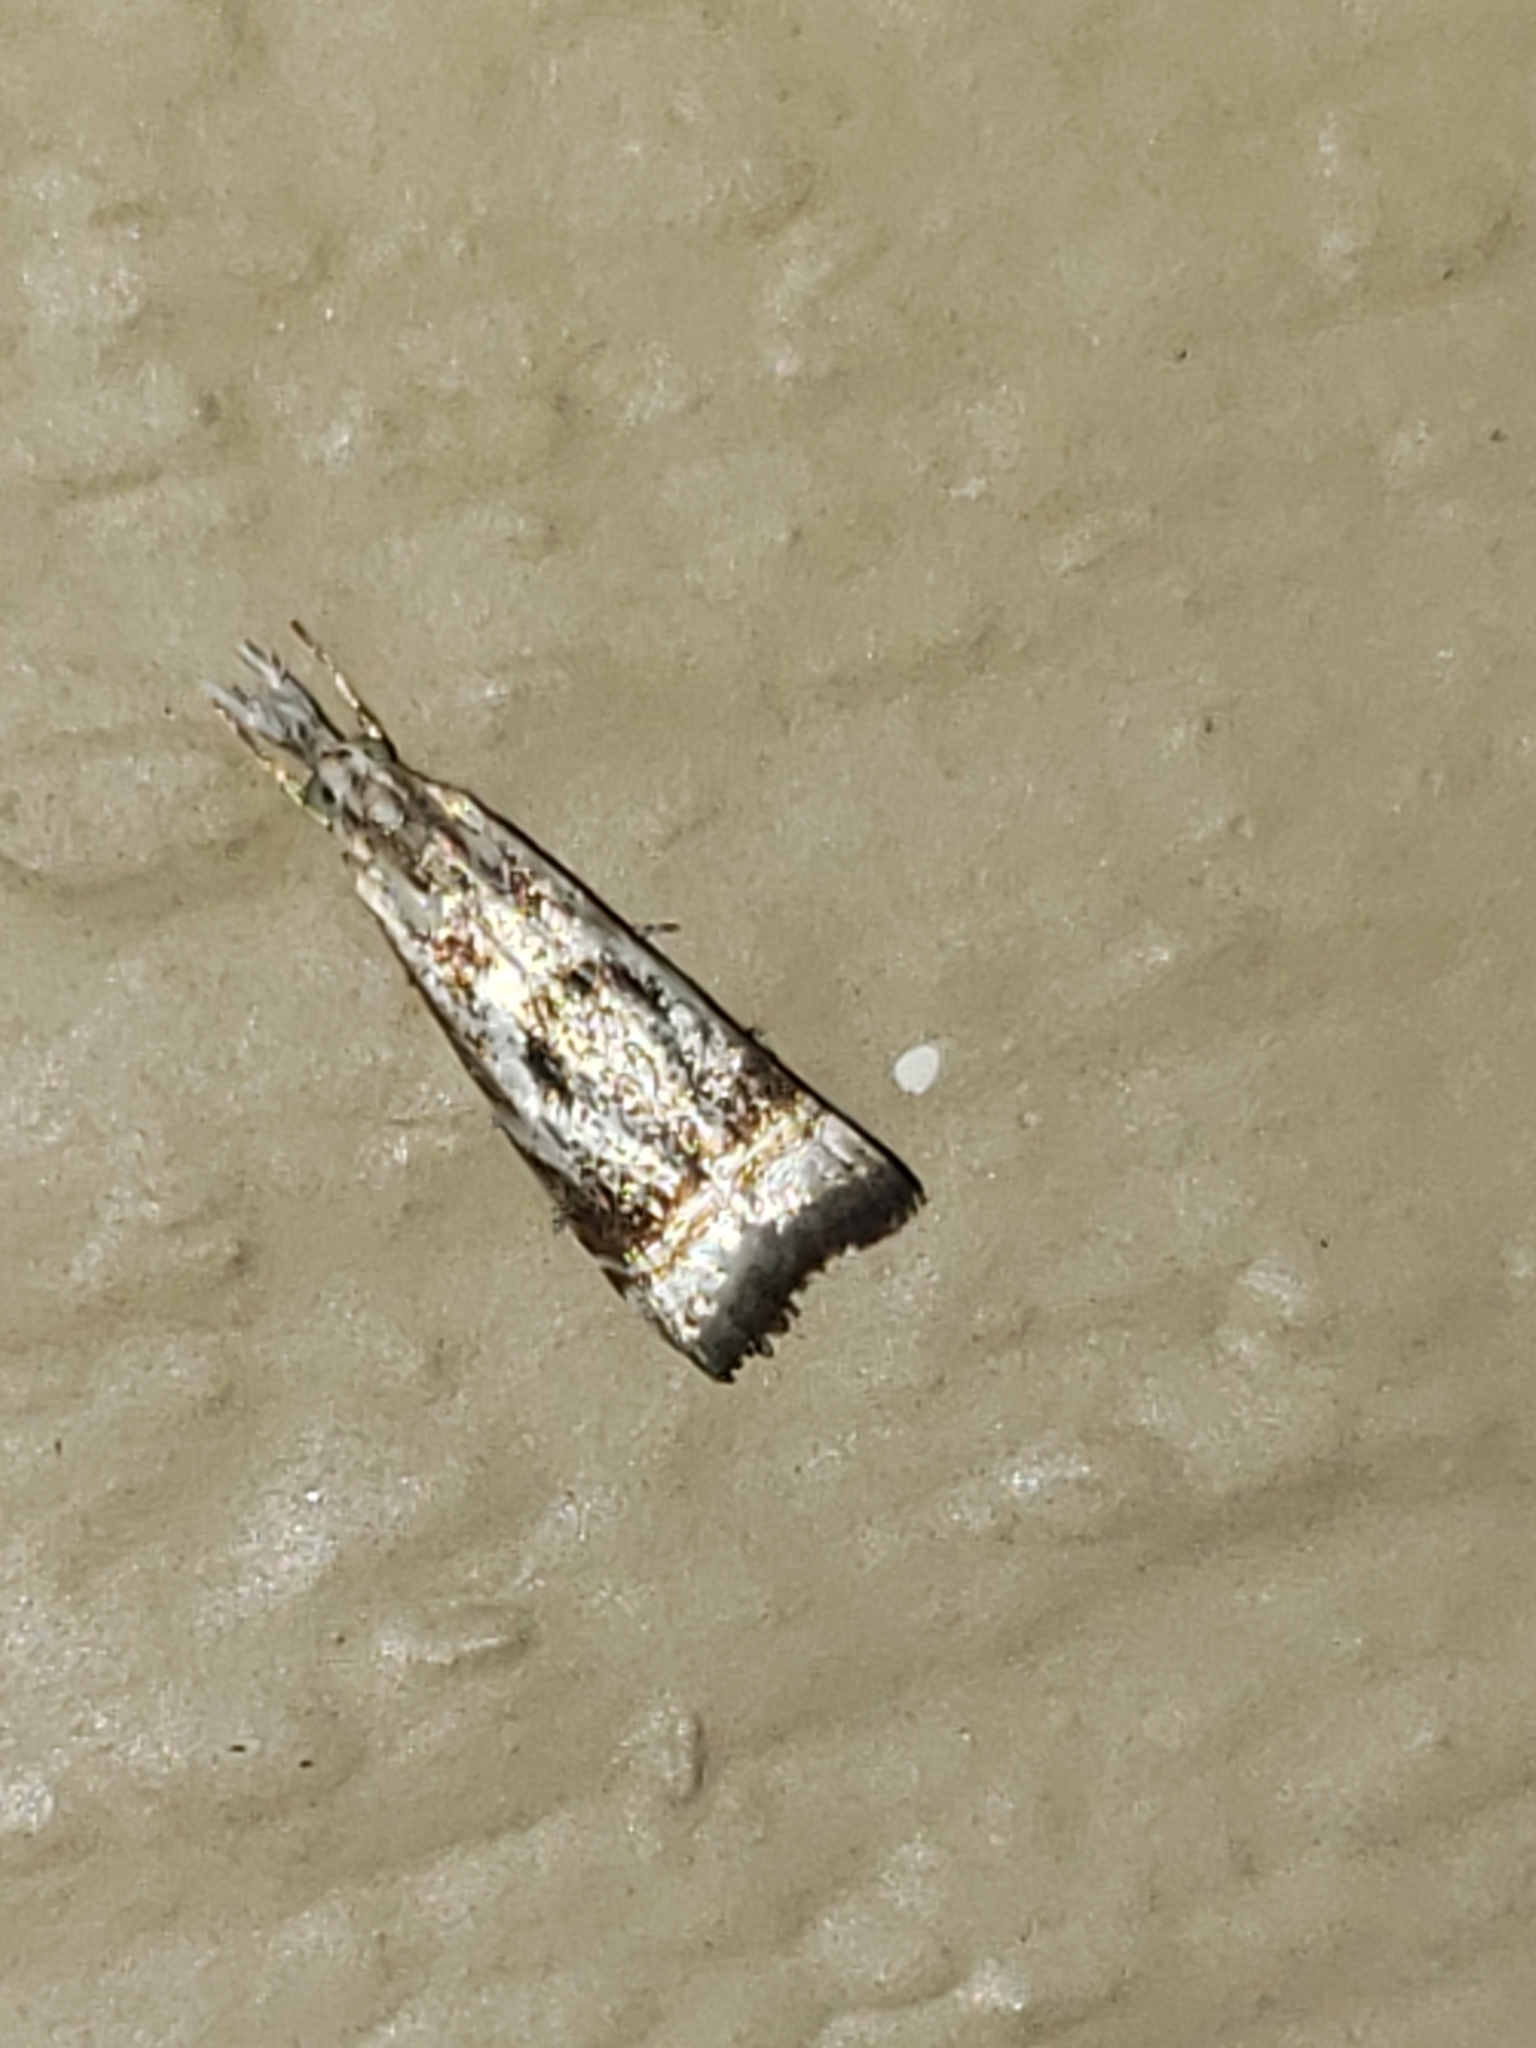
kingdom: Animalia
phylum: Arthropoda
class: Insecta
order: Lepidoptera
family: Crambidae
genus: Microcrambus
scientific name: Microcrambus elegans
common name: Elegant grass-veneer
